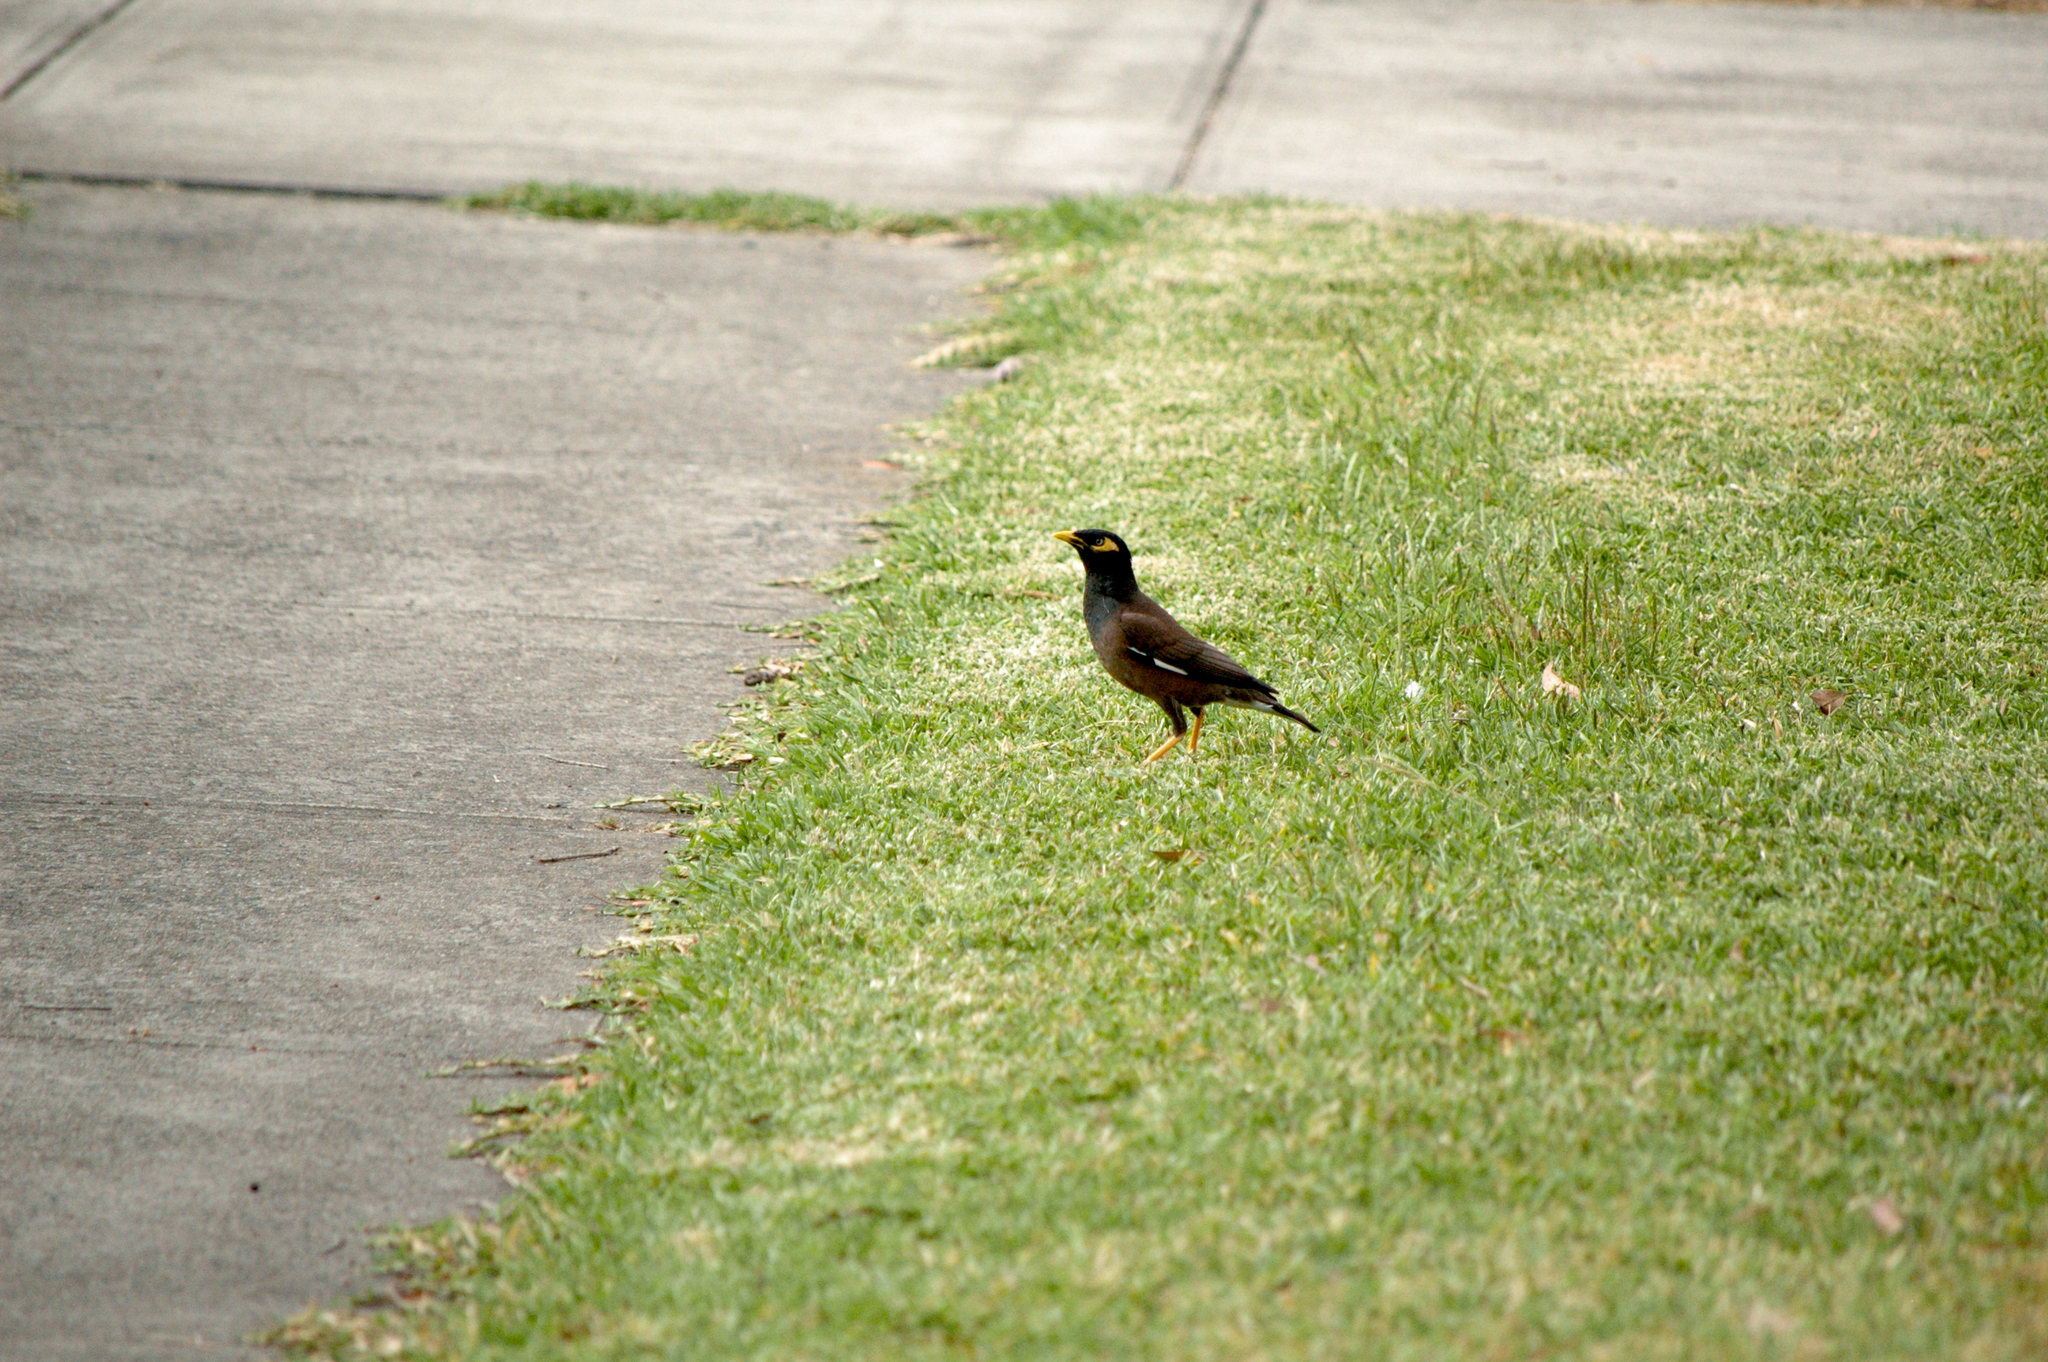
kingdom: Animalia
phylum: Chordata
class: Aves
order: Passeriformes
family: Sturnidae
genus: Acridotheres
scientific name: Acridotheres tristis
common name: Common myna
